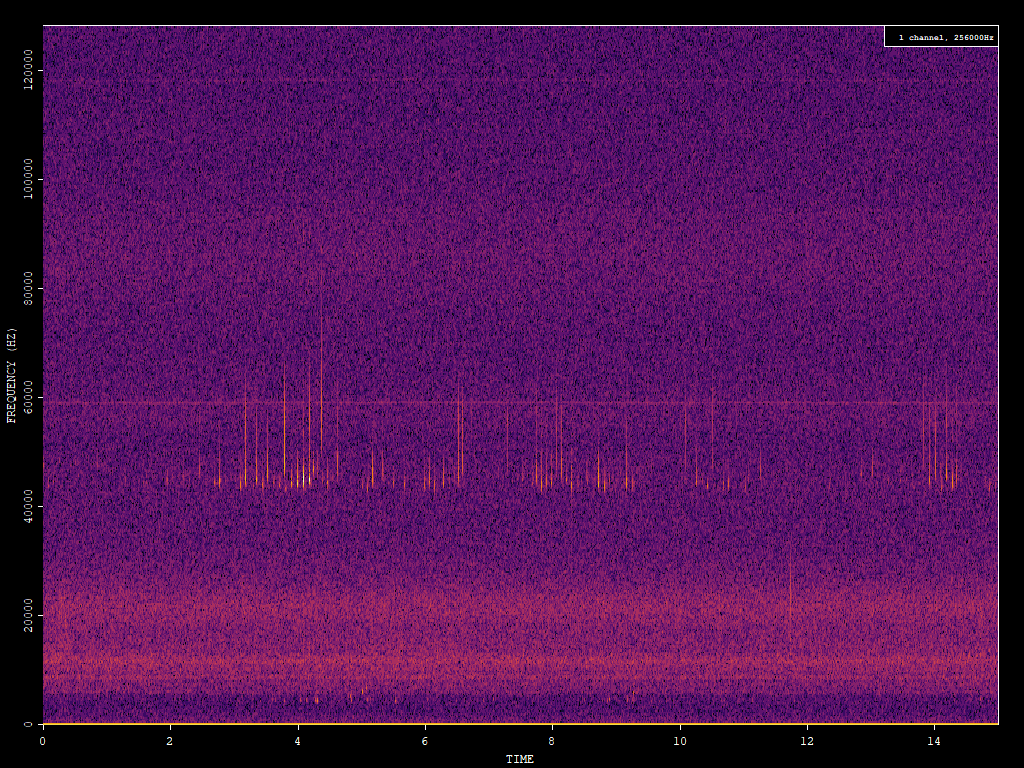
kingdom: Animalia
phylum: Chordata
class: Mammalia
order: Chiroptera
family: Vespertilionidae
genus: Pipistrellus
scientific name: Pipistrellus pipistrellus
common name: Common pipistrelle
